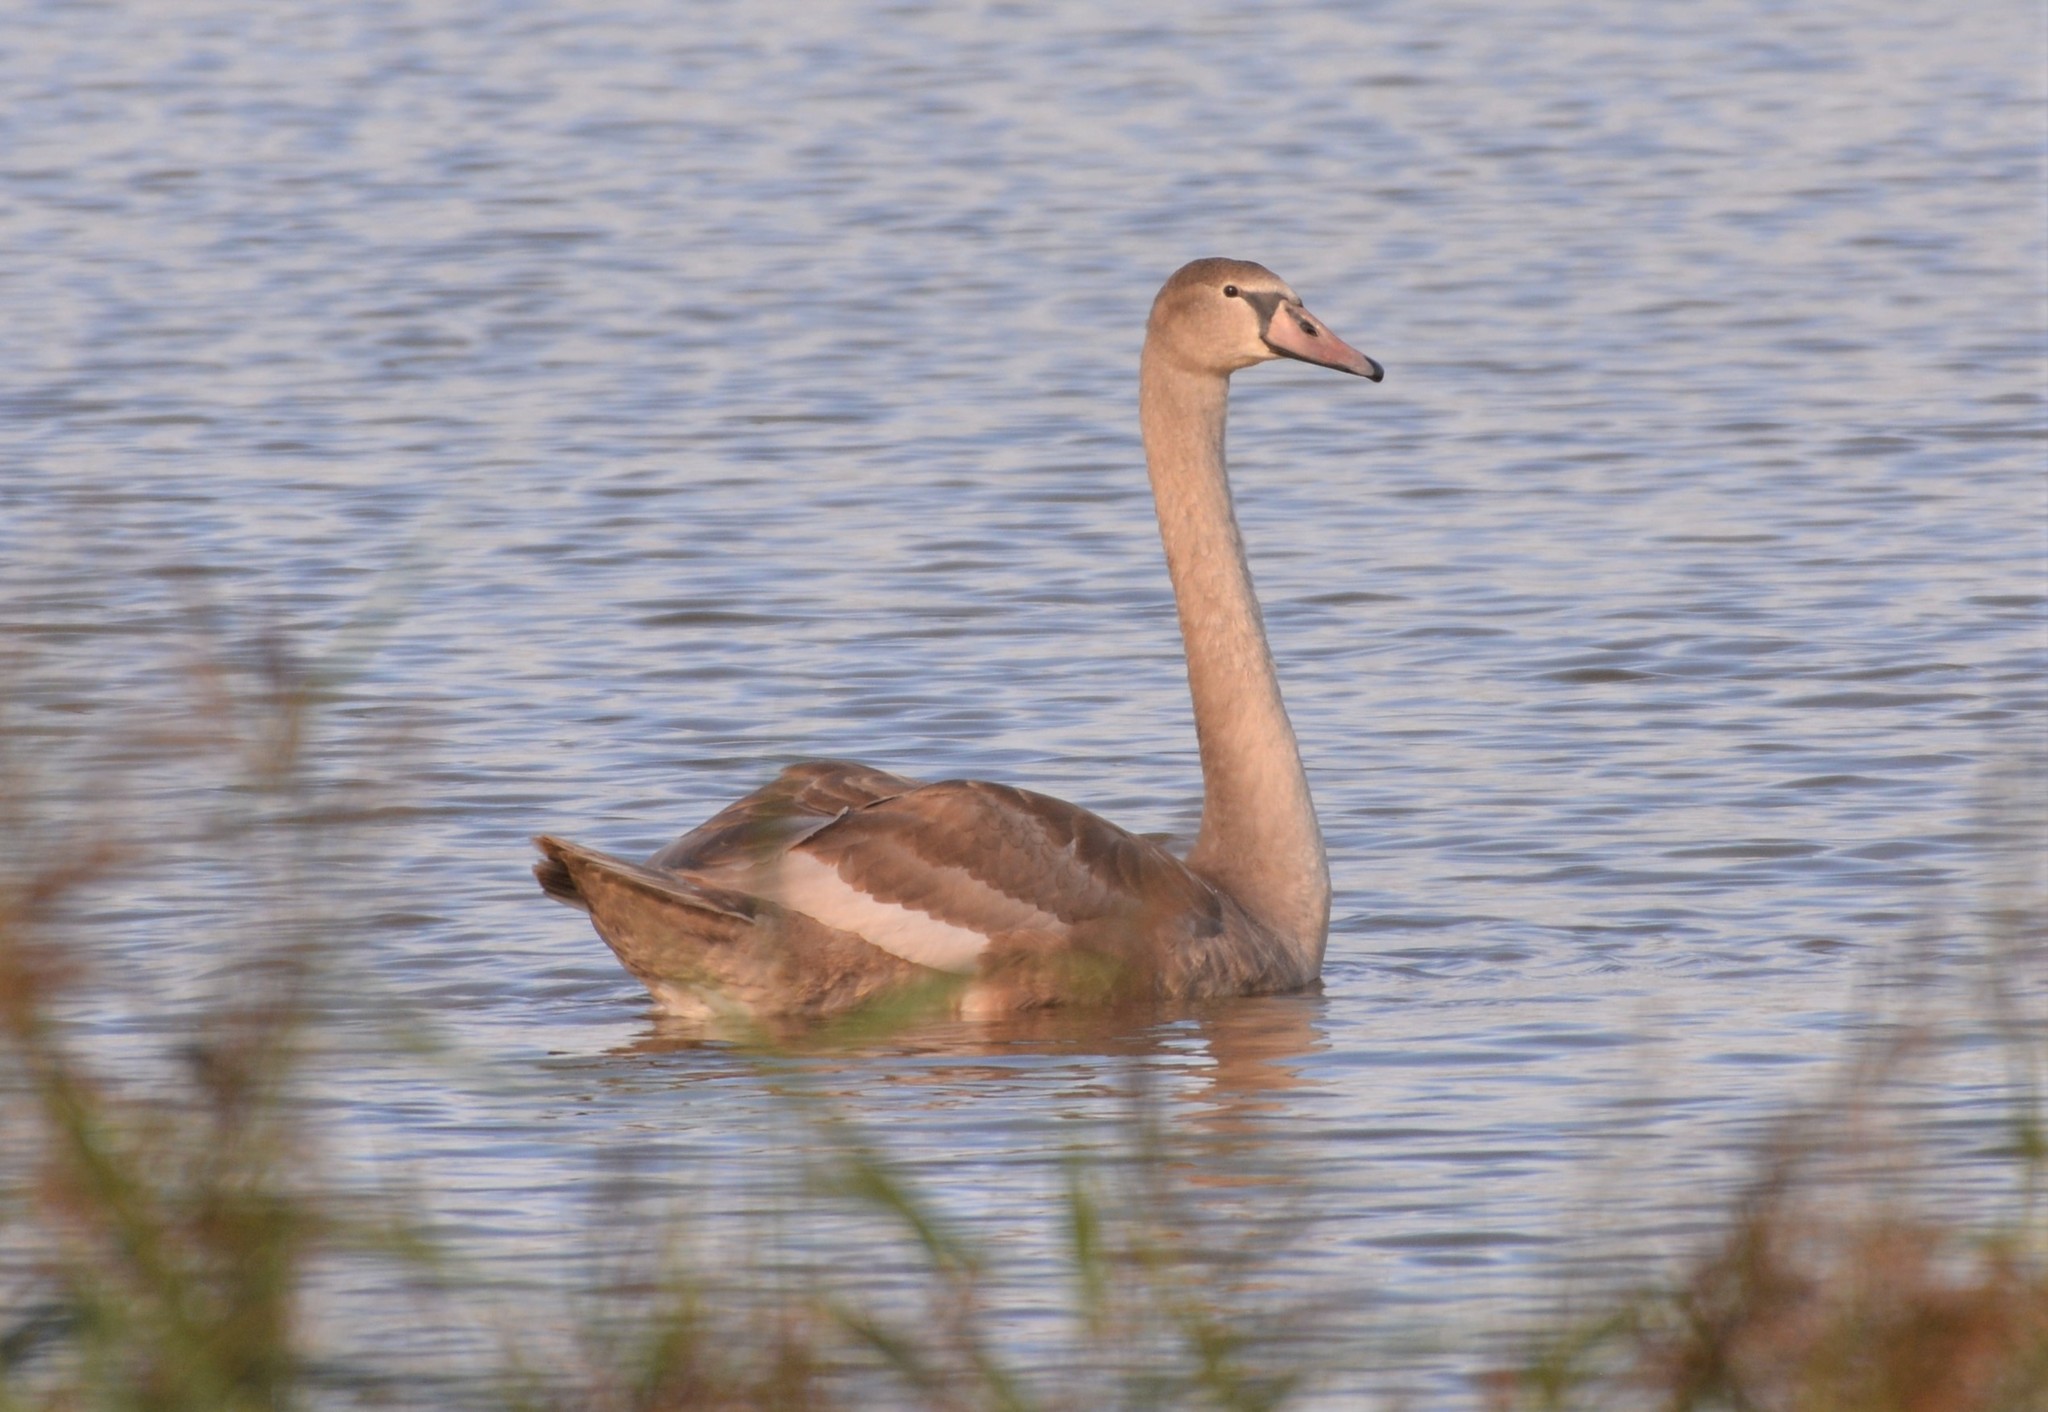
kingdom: Animalia
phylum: Chordata
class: Aves
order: Anseriformes
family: Anatidae
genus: Cygnus
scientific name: Cygnus olor
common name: Mute swan
